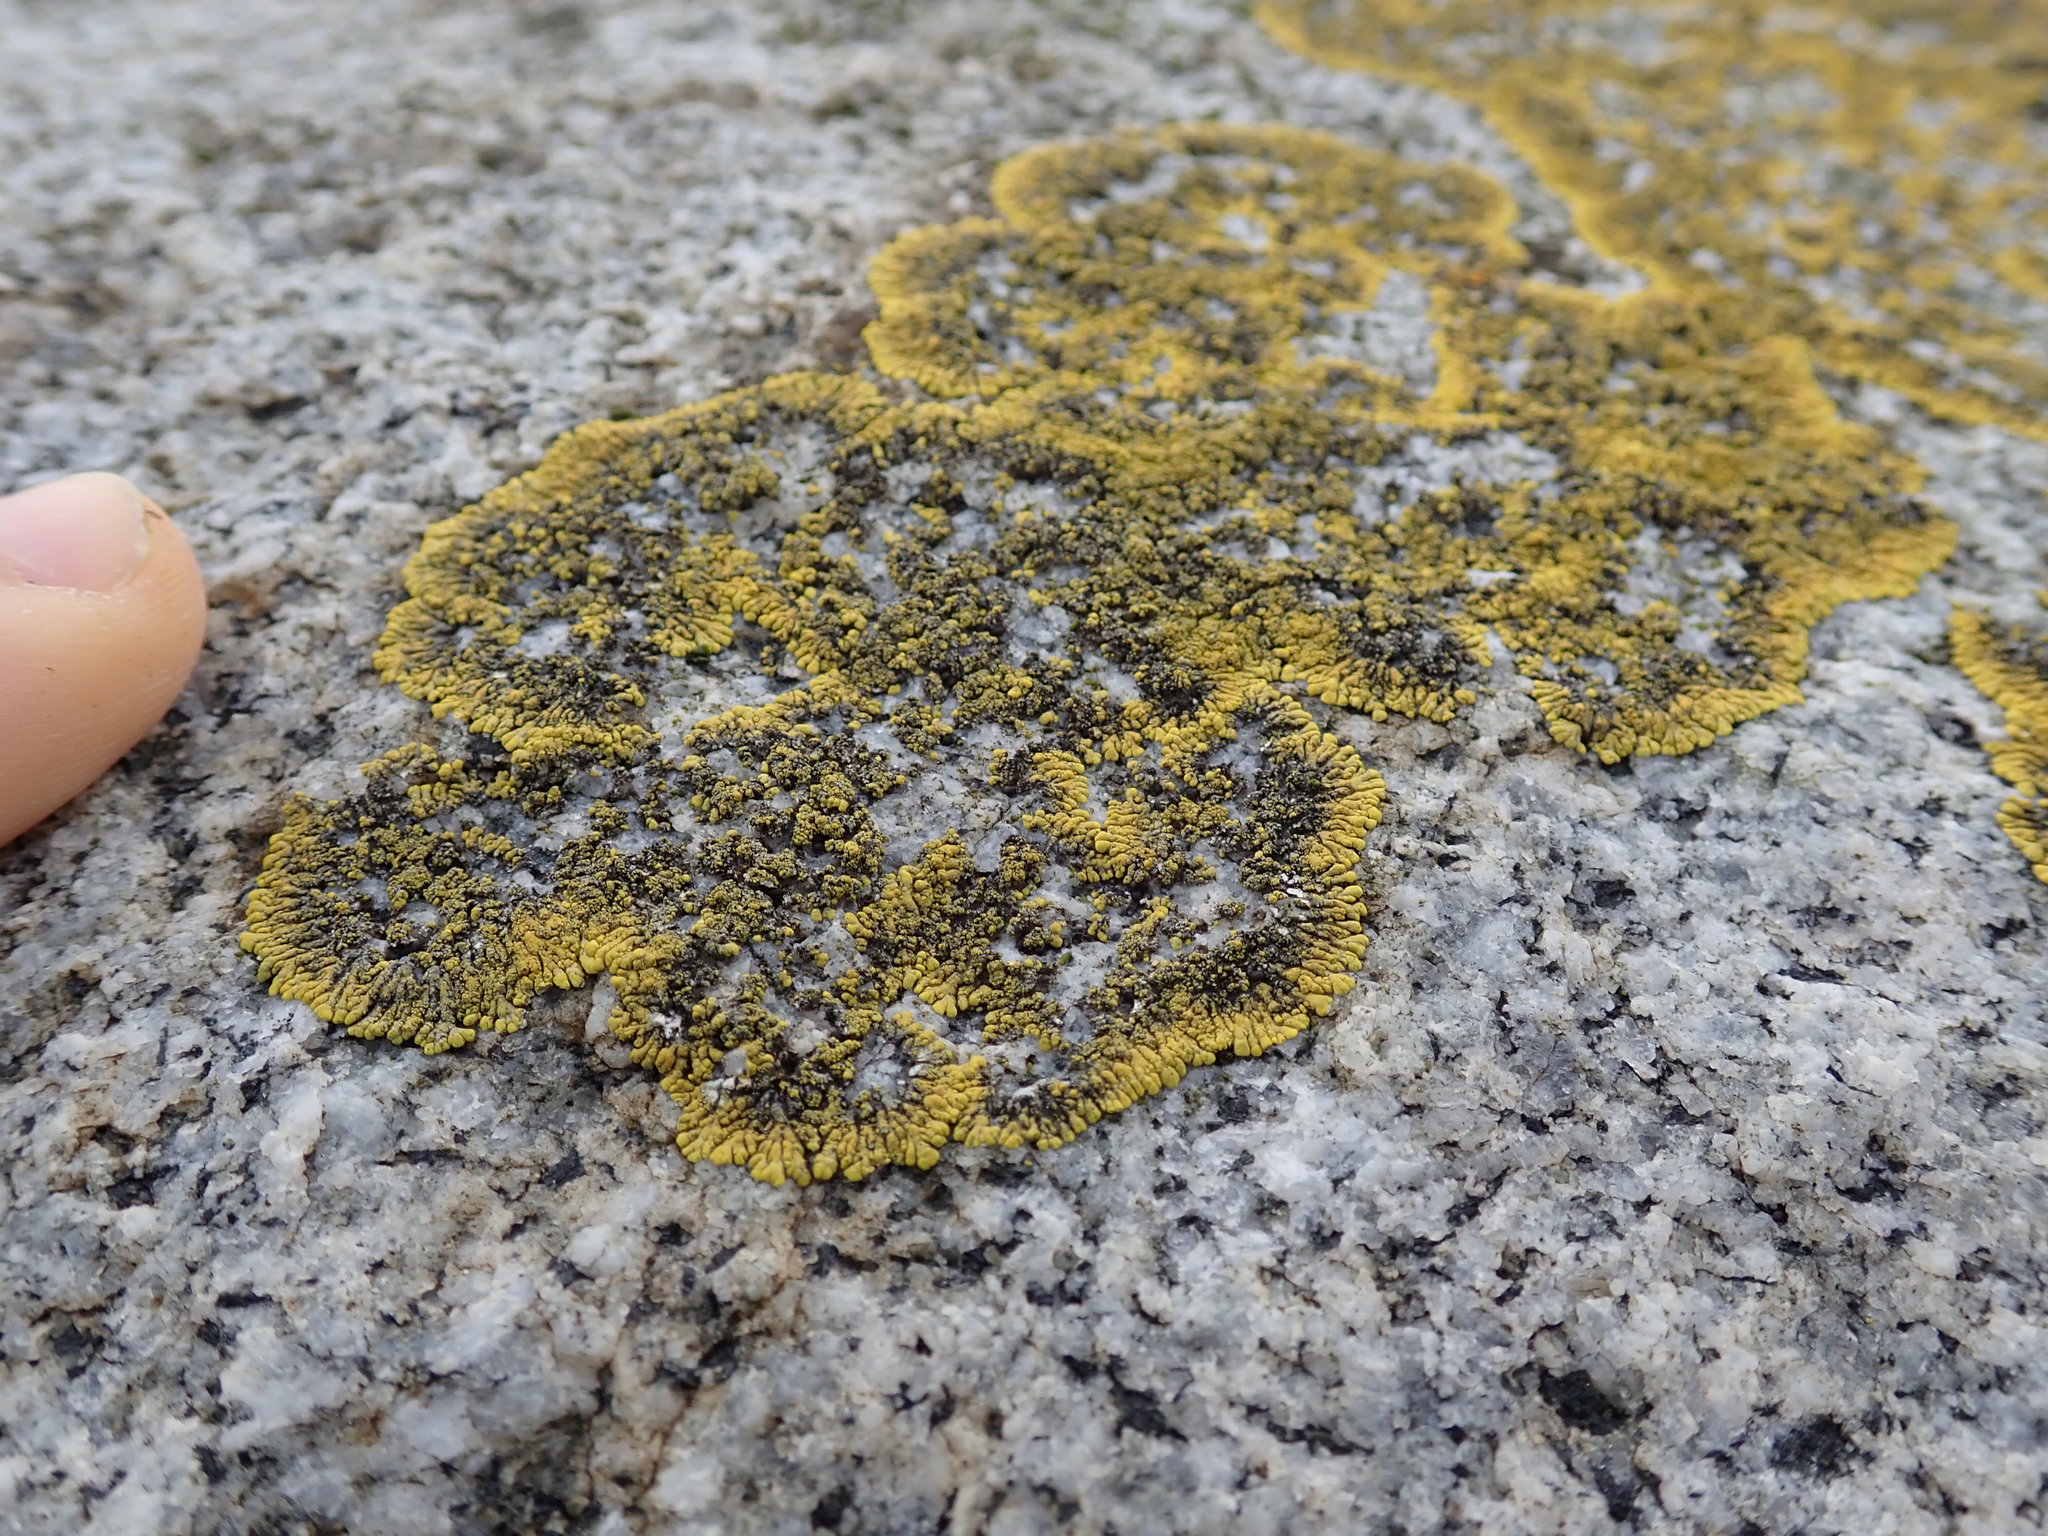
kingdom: Fungi
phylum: Ascomycota
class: Lecanoromycetes
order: Teloschistales
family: Teloschistaceae
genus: Verrucoplaca
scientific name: Verrucoplaca verruculifera
